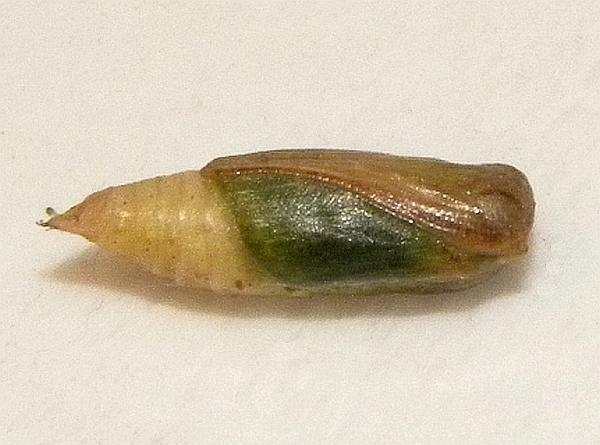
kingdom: Animalia
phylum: Arthropoda
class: Insecta
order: Lepidoptera
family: Geometridae
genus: Synchlora
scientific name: Synchlora aerata
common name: Wavy-lined emerald
